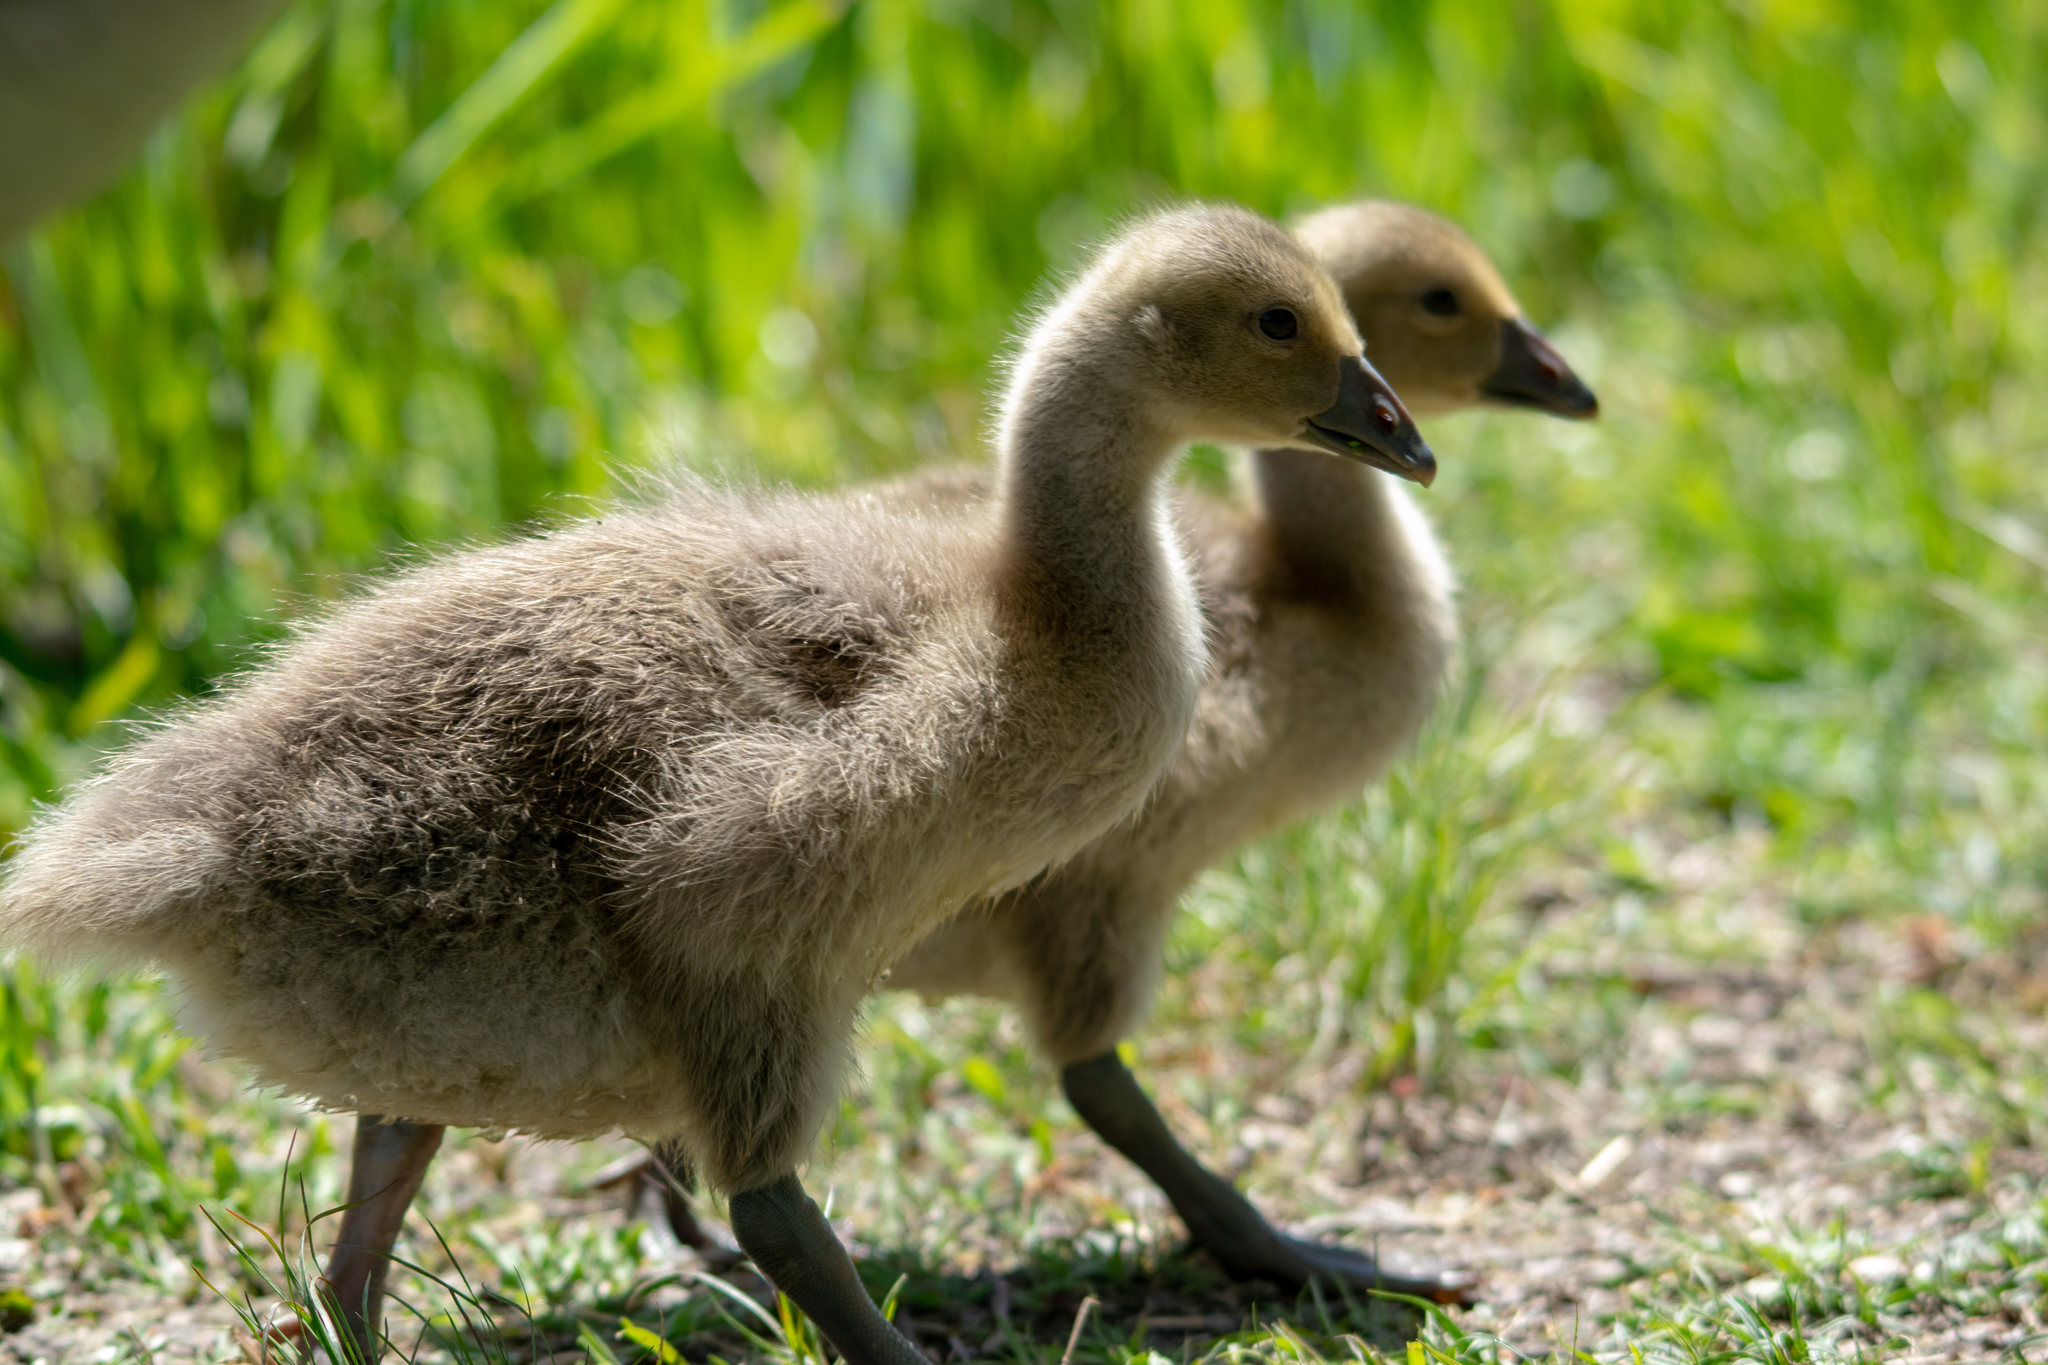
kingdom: Animalia
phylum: Chordata
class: Aves
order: Anseriformes
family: Anatidae
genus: Anser
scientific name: Anser anser
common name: Greylag goose
